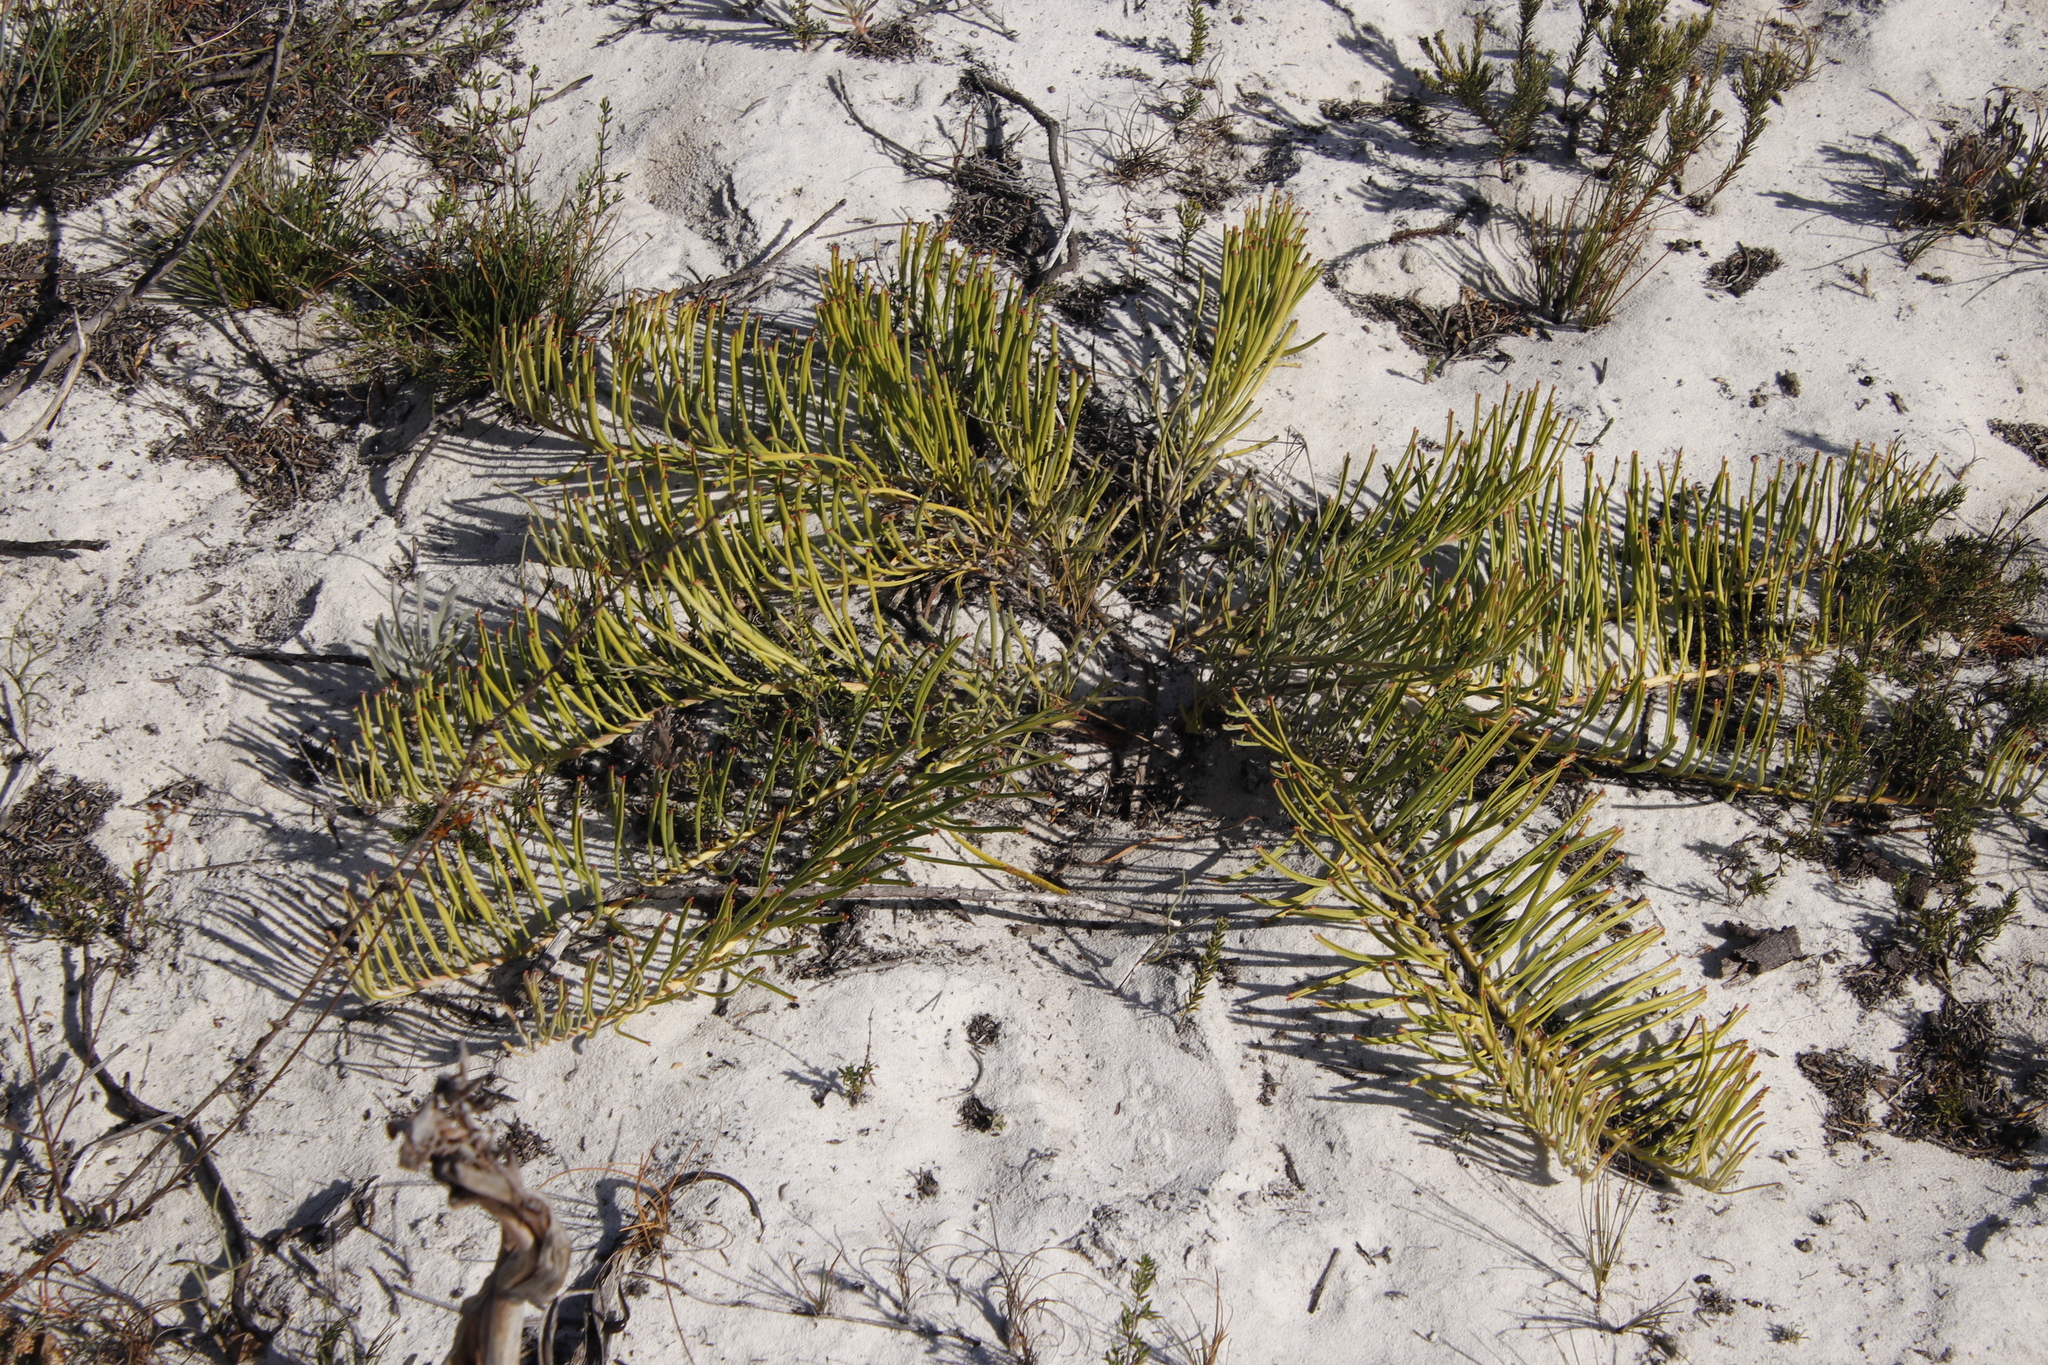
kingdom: Plantae
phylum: Tracheophyta
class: Magnoliopsida
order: Proteales
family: Proteaceae
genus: Leucospermum
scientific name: Leucospermum hypophyllocarpodendron
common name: Snakestem pincushion
